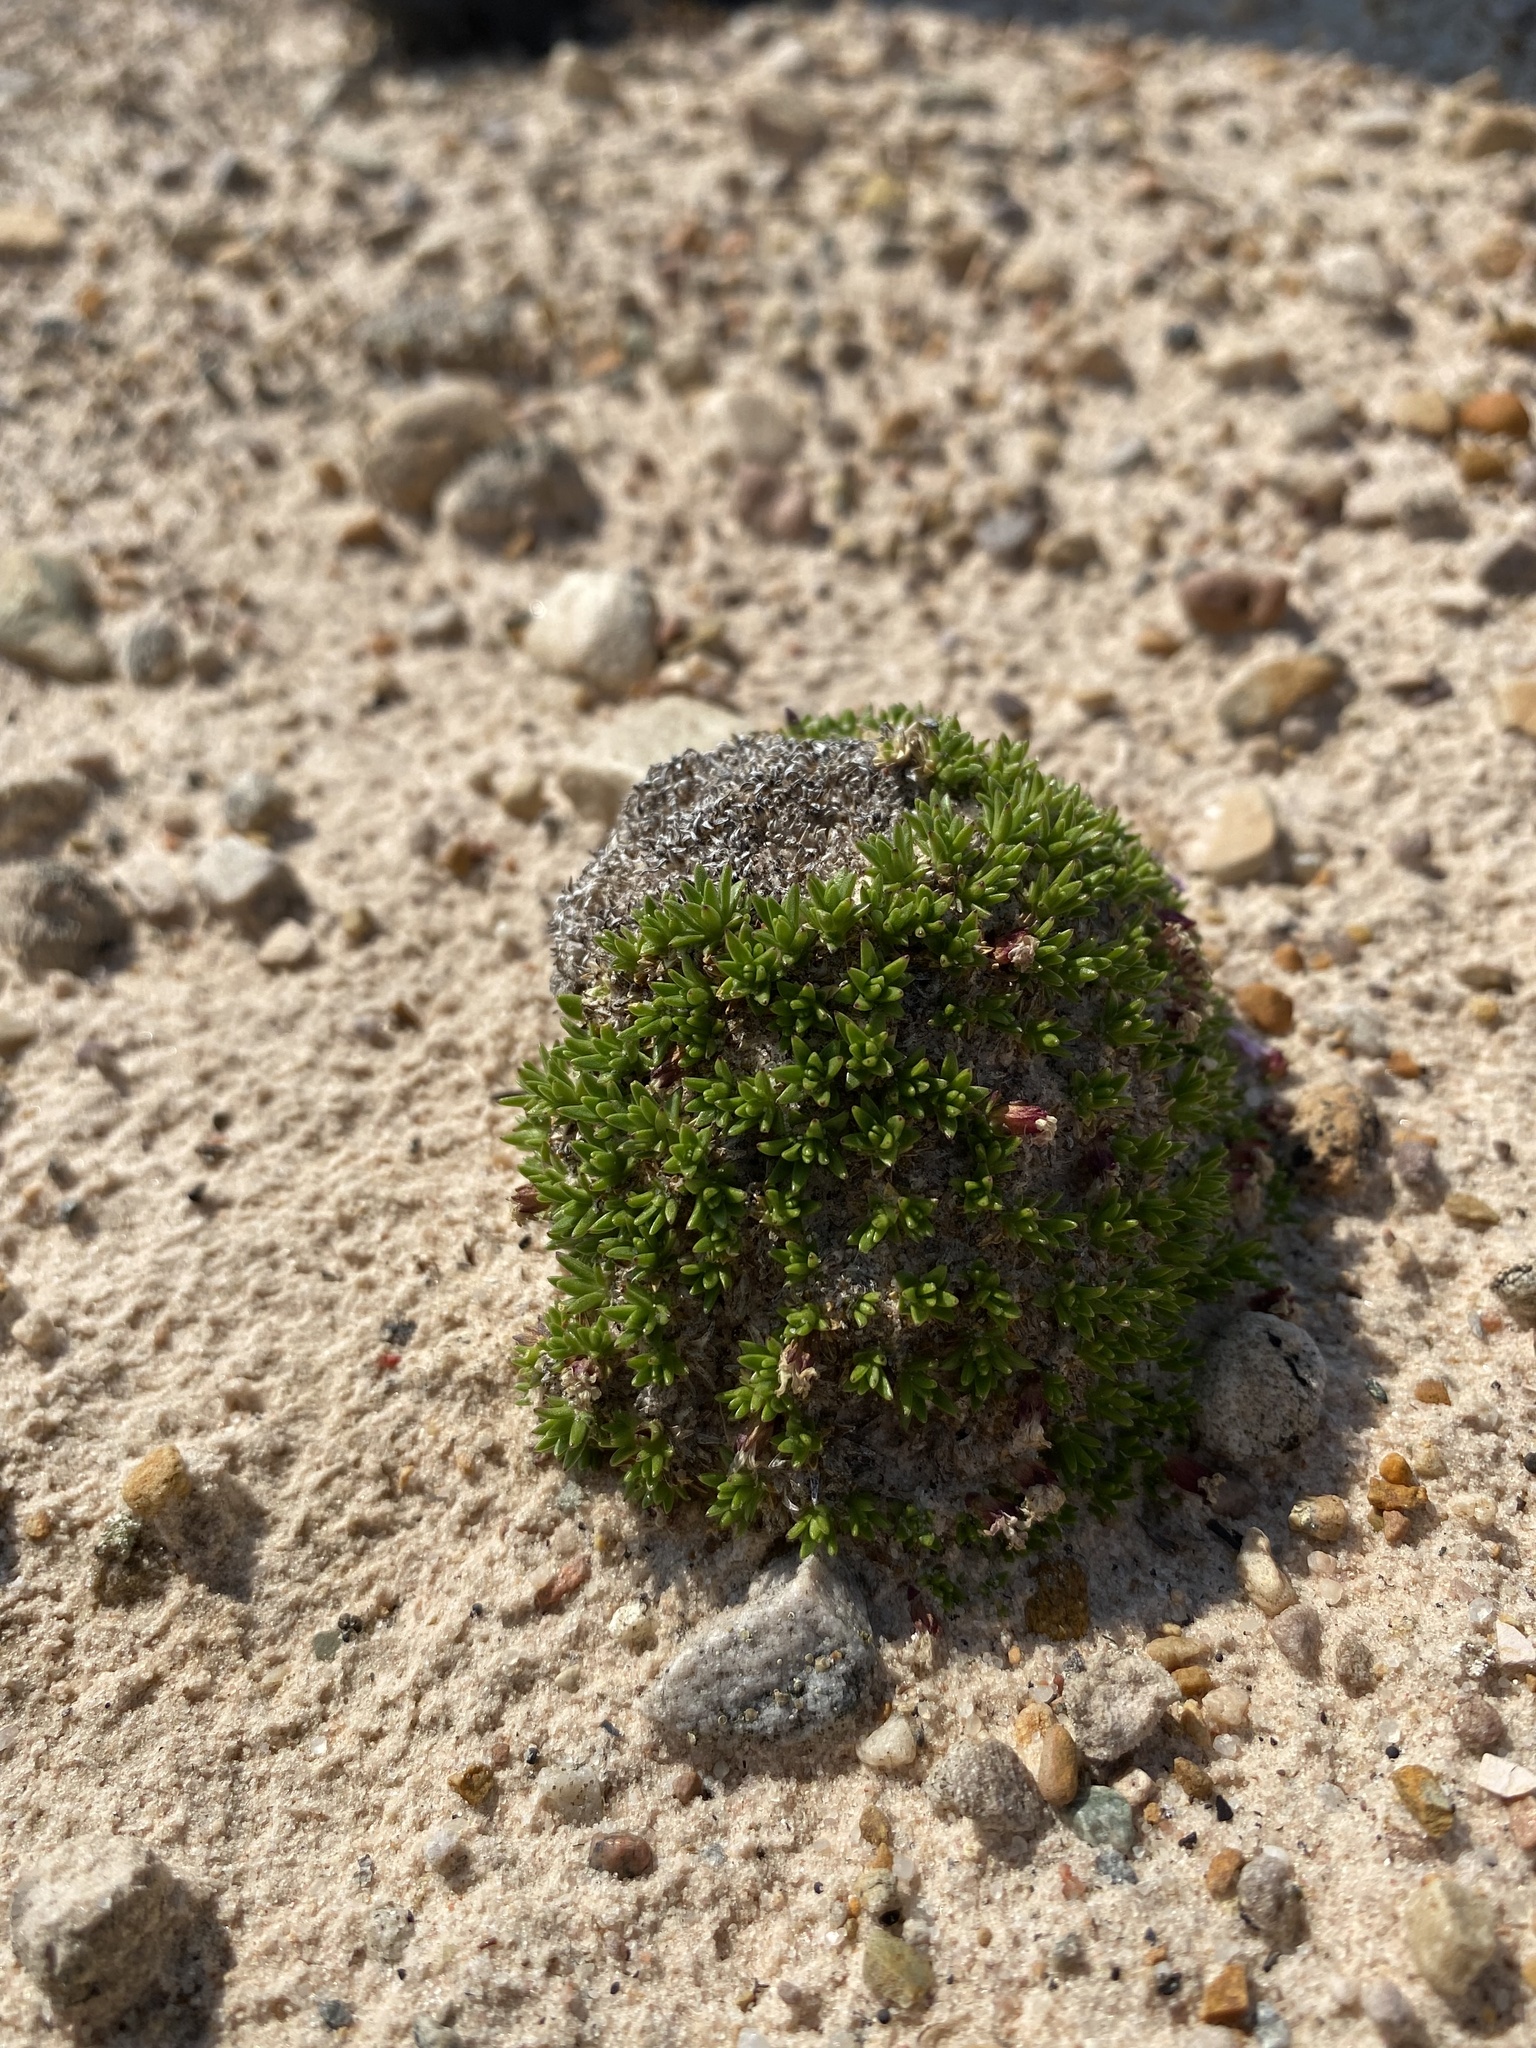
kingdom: Plantae
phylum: Tracheophyta
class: Magnoliopsida
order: Caryophyllales
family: Caryophyllaceae
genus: Silene
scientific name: Silene acaulis
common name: Moss campion
